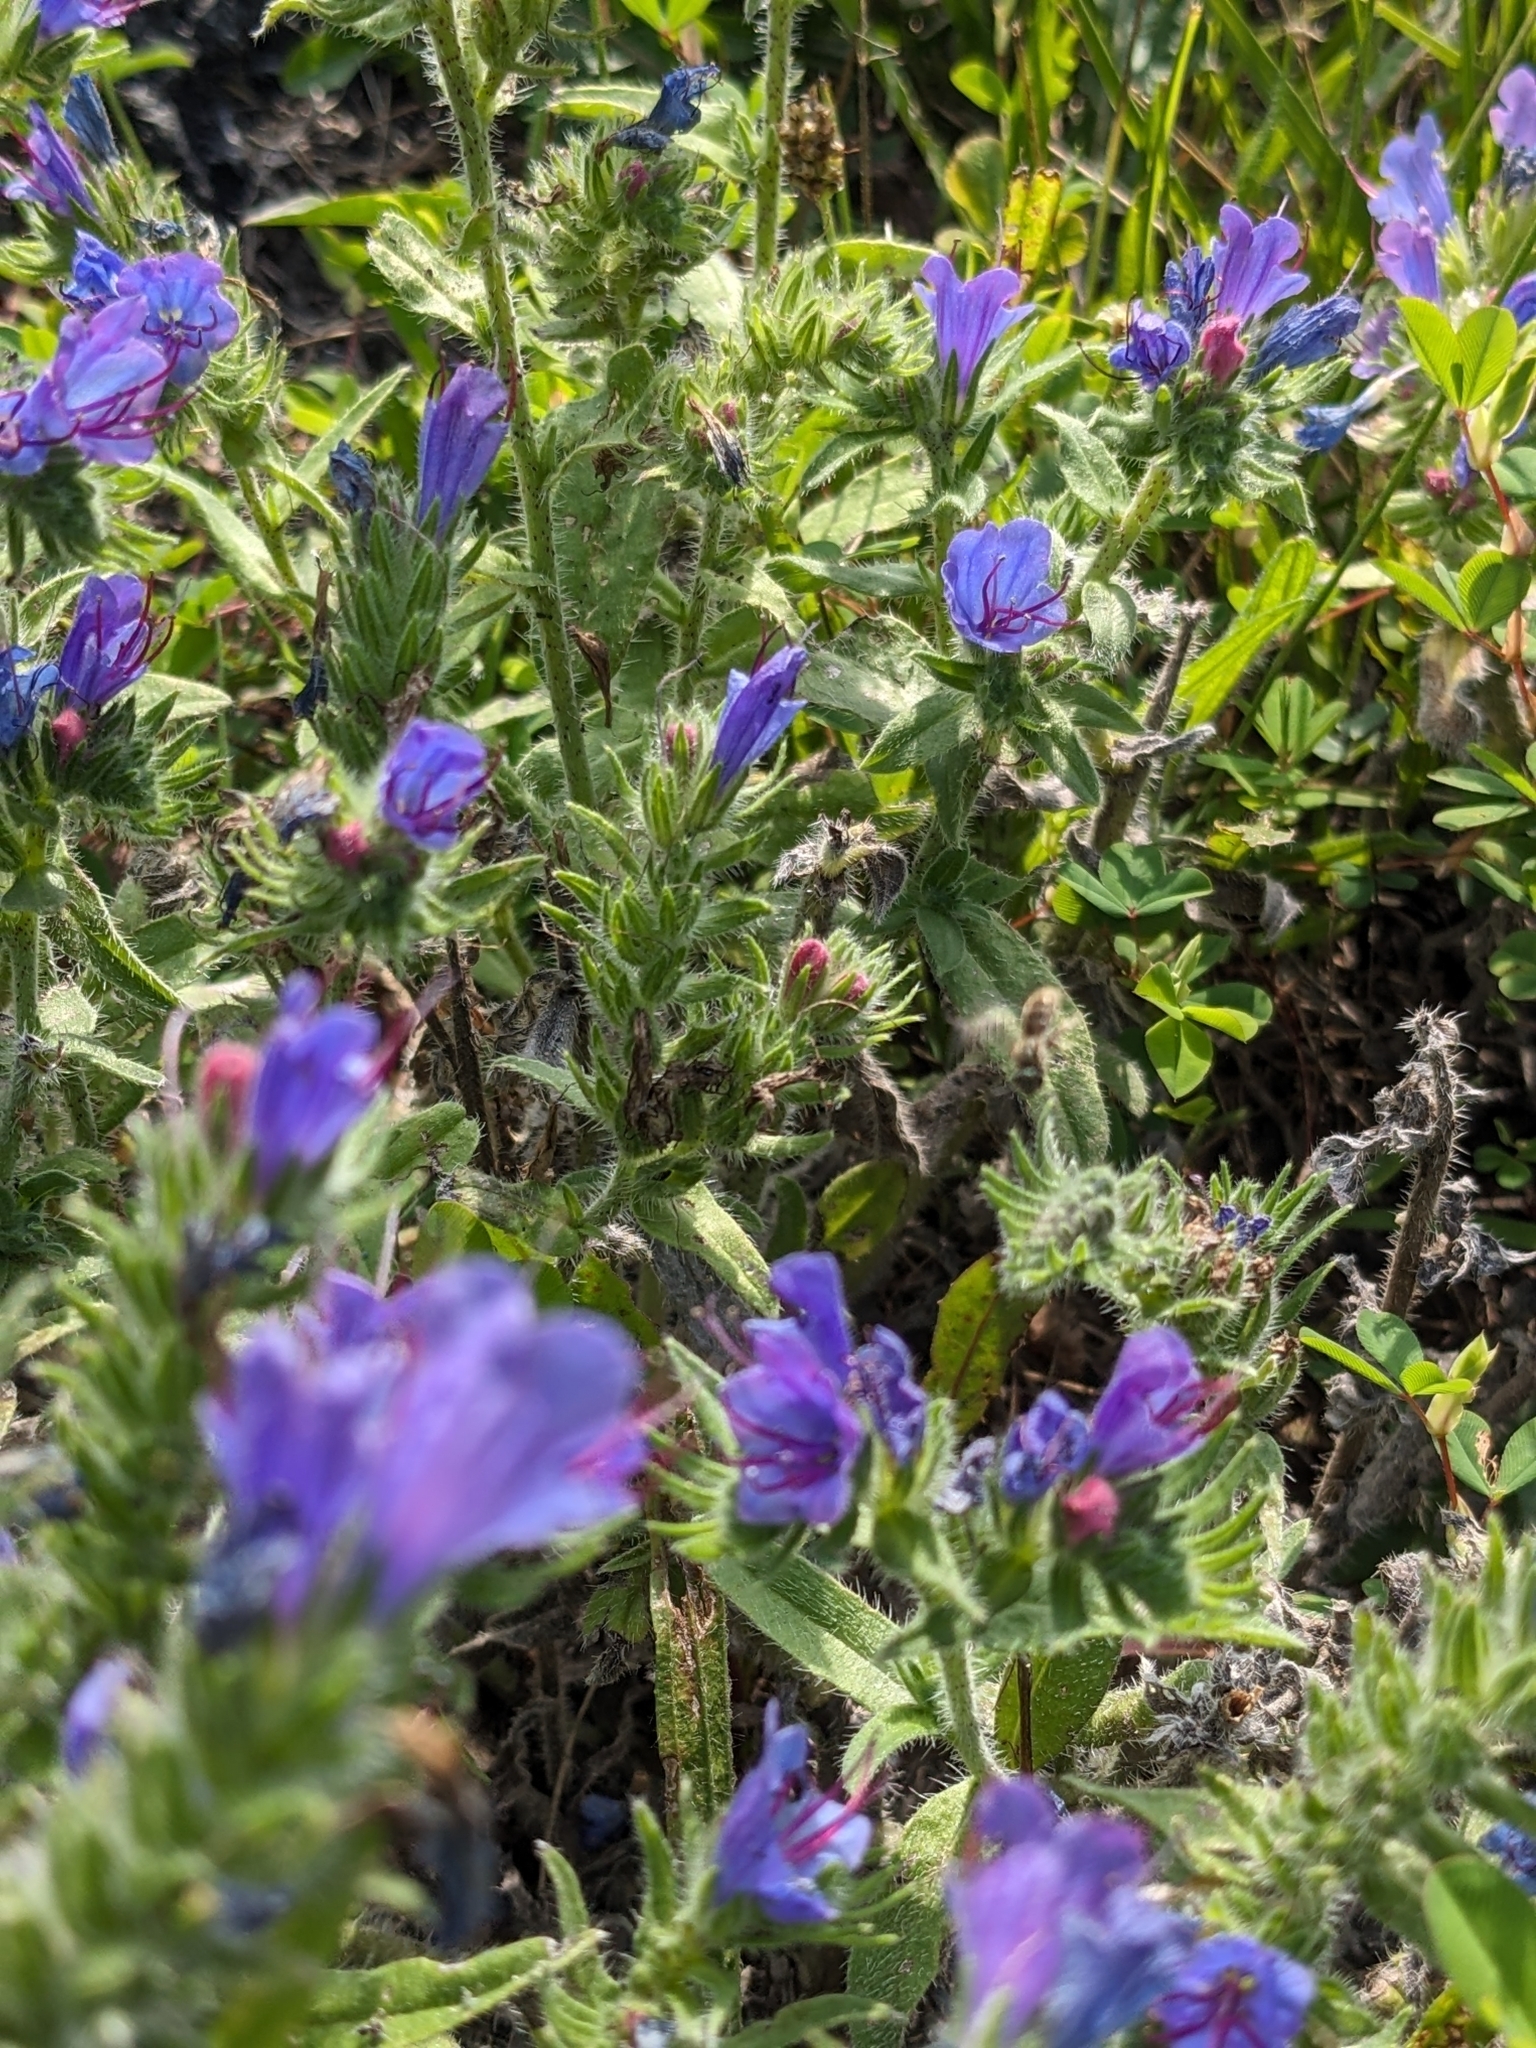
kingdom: Plantae
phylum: Tracheophyta
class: Magnoliopsida
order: Boraginales
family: Boraginaceae
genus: Echium
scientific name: Echium vulgare
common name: Common viper's bugloss
